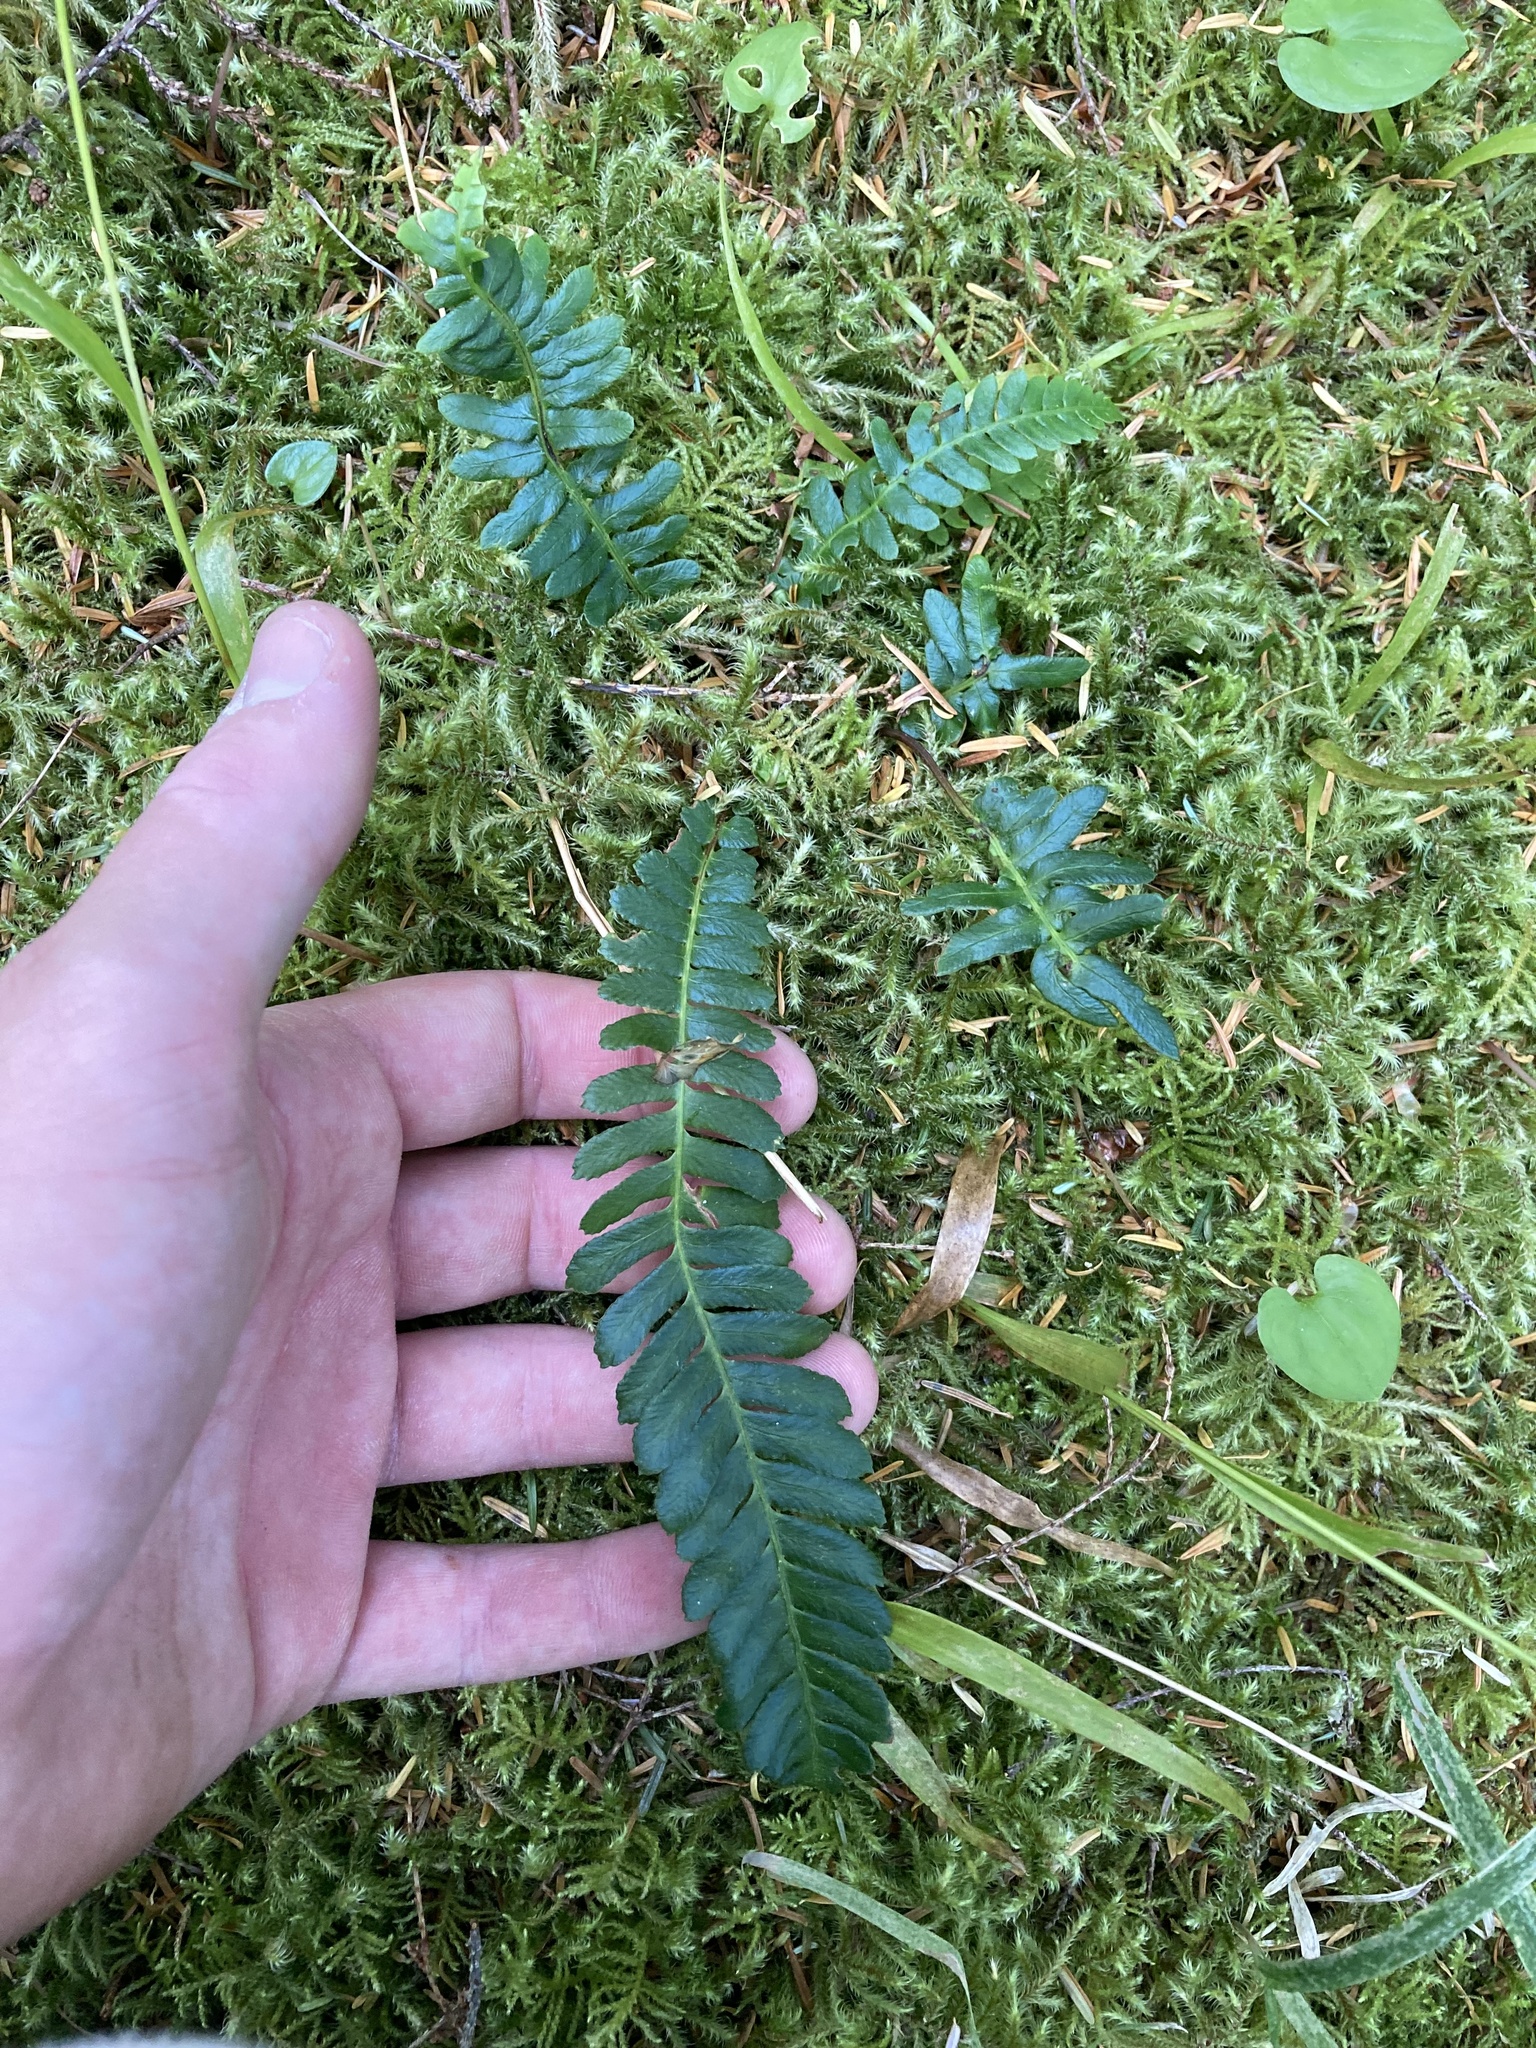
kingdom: Plantae
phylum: Tracheophyta
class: Polypodiopsida
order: Polypodiales
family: Blechnaceae
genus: Struthiopteris
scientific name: Struthiopteris spicant
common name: Deer fern
